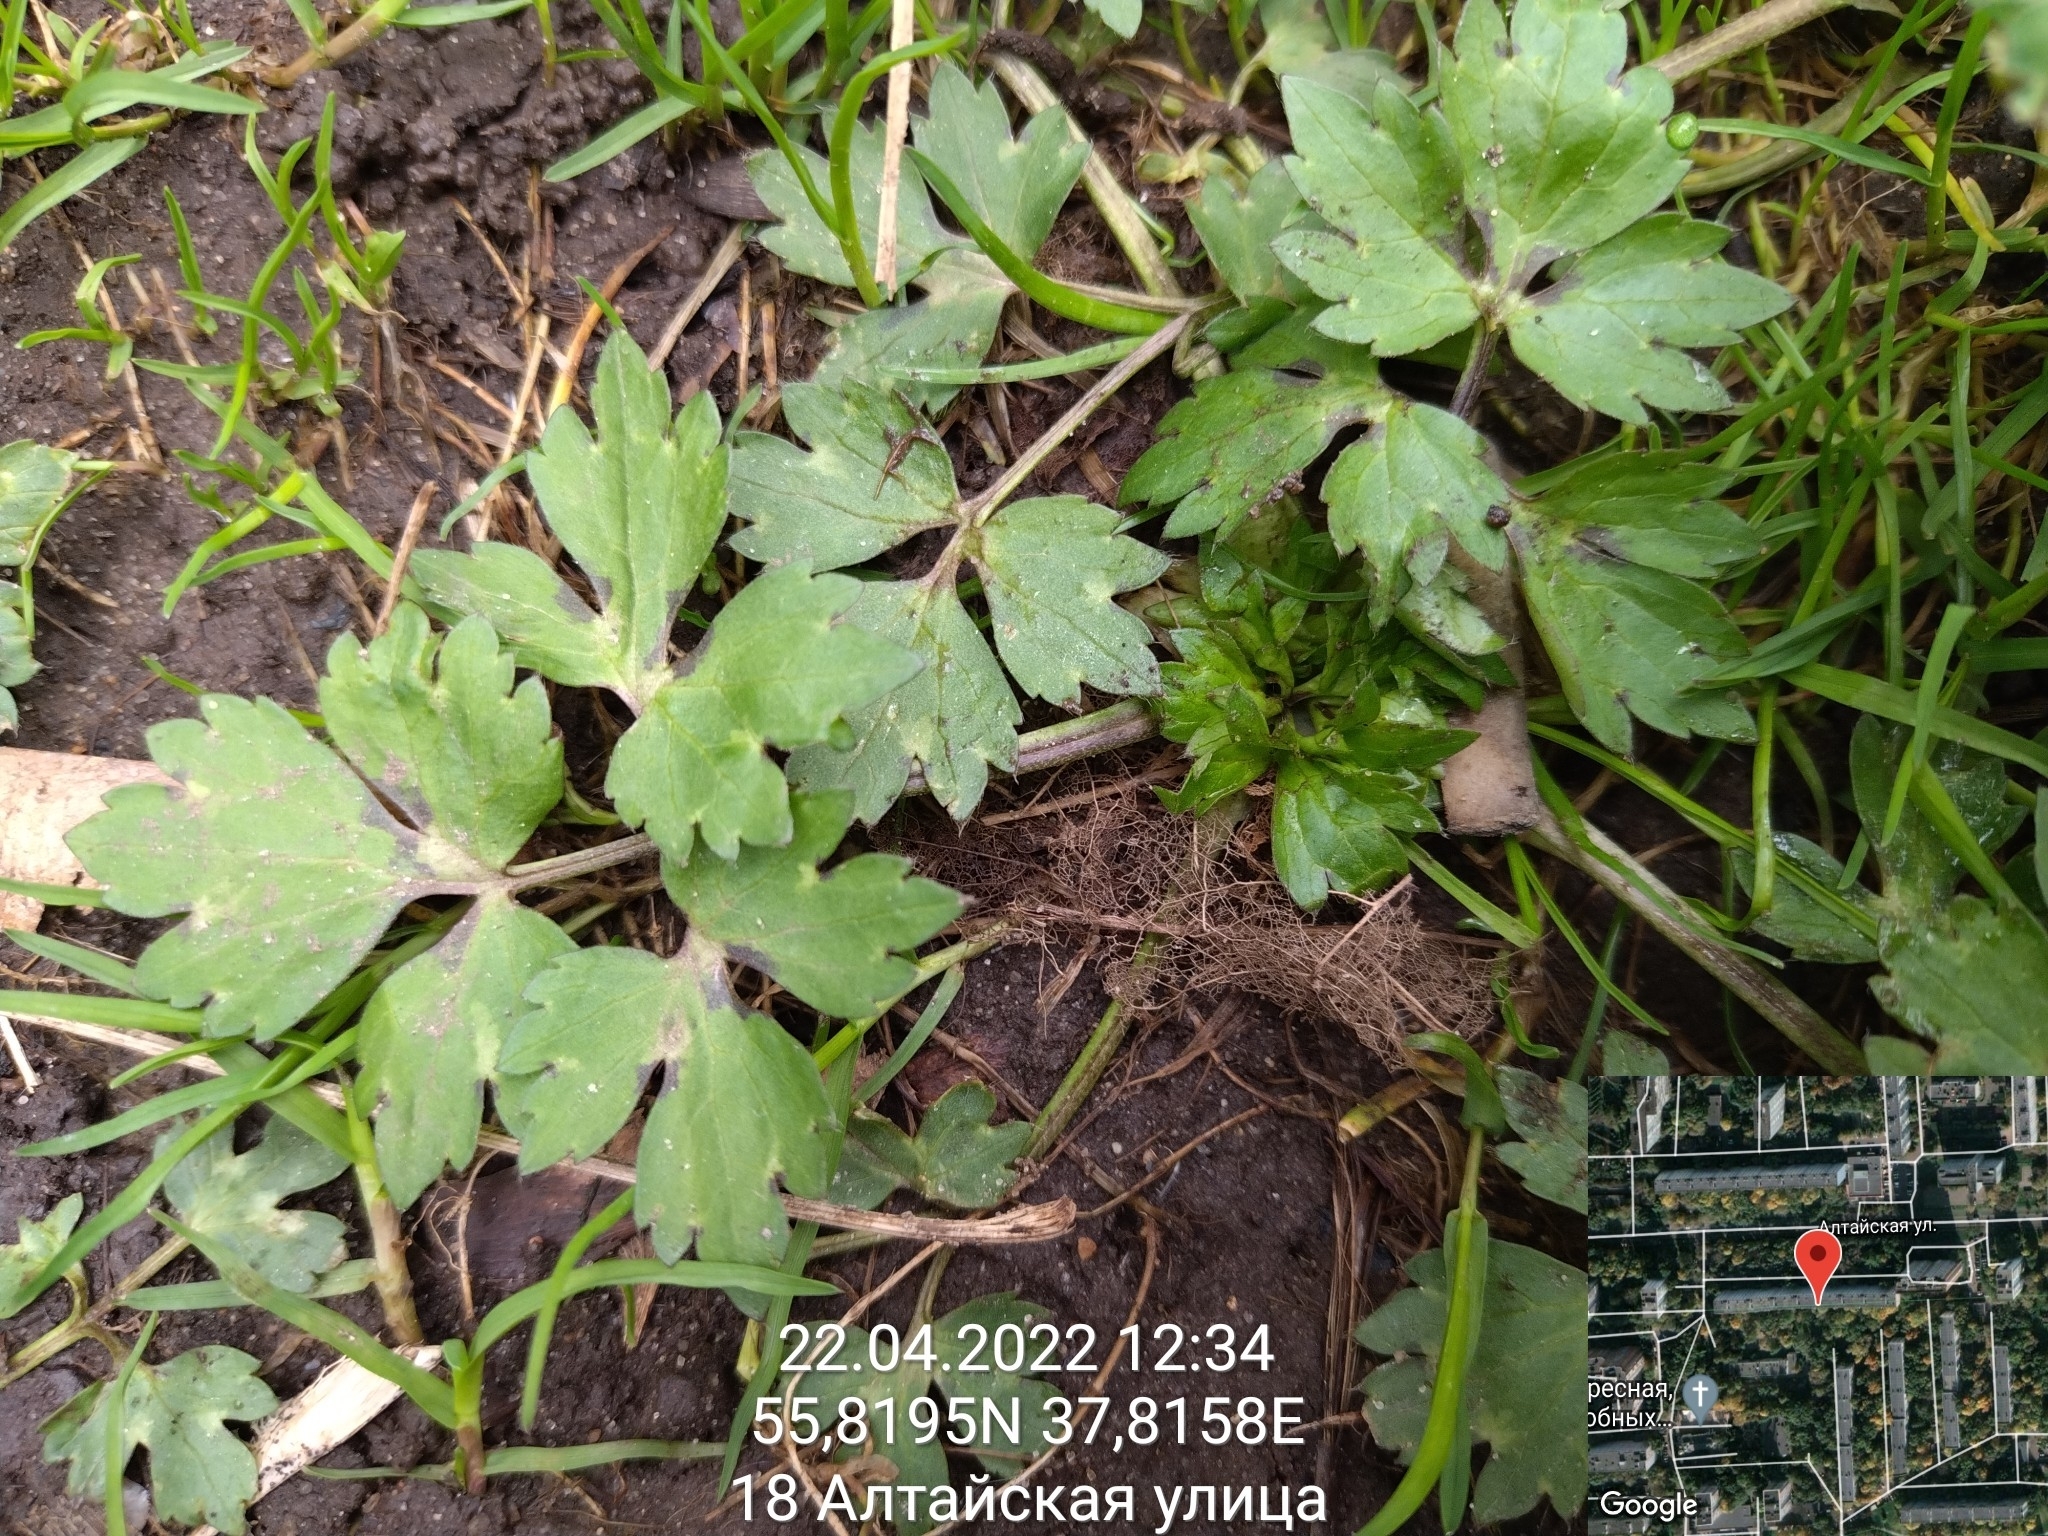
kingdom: Plantae
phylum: Tracheophyta
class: Magnoliopsida
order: Ranunculales
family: Ranunculaceae
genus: Ranunculus
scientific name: Ranunculus repens
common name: Creeping buttercup
